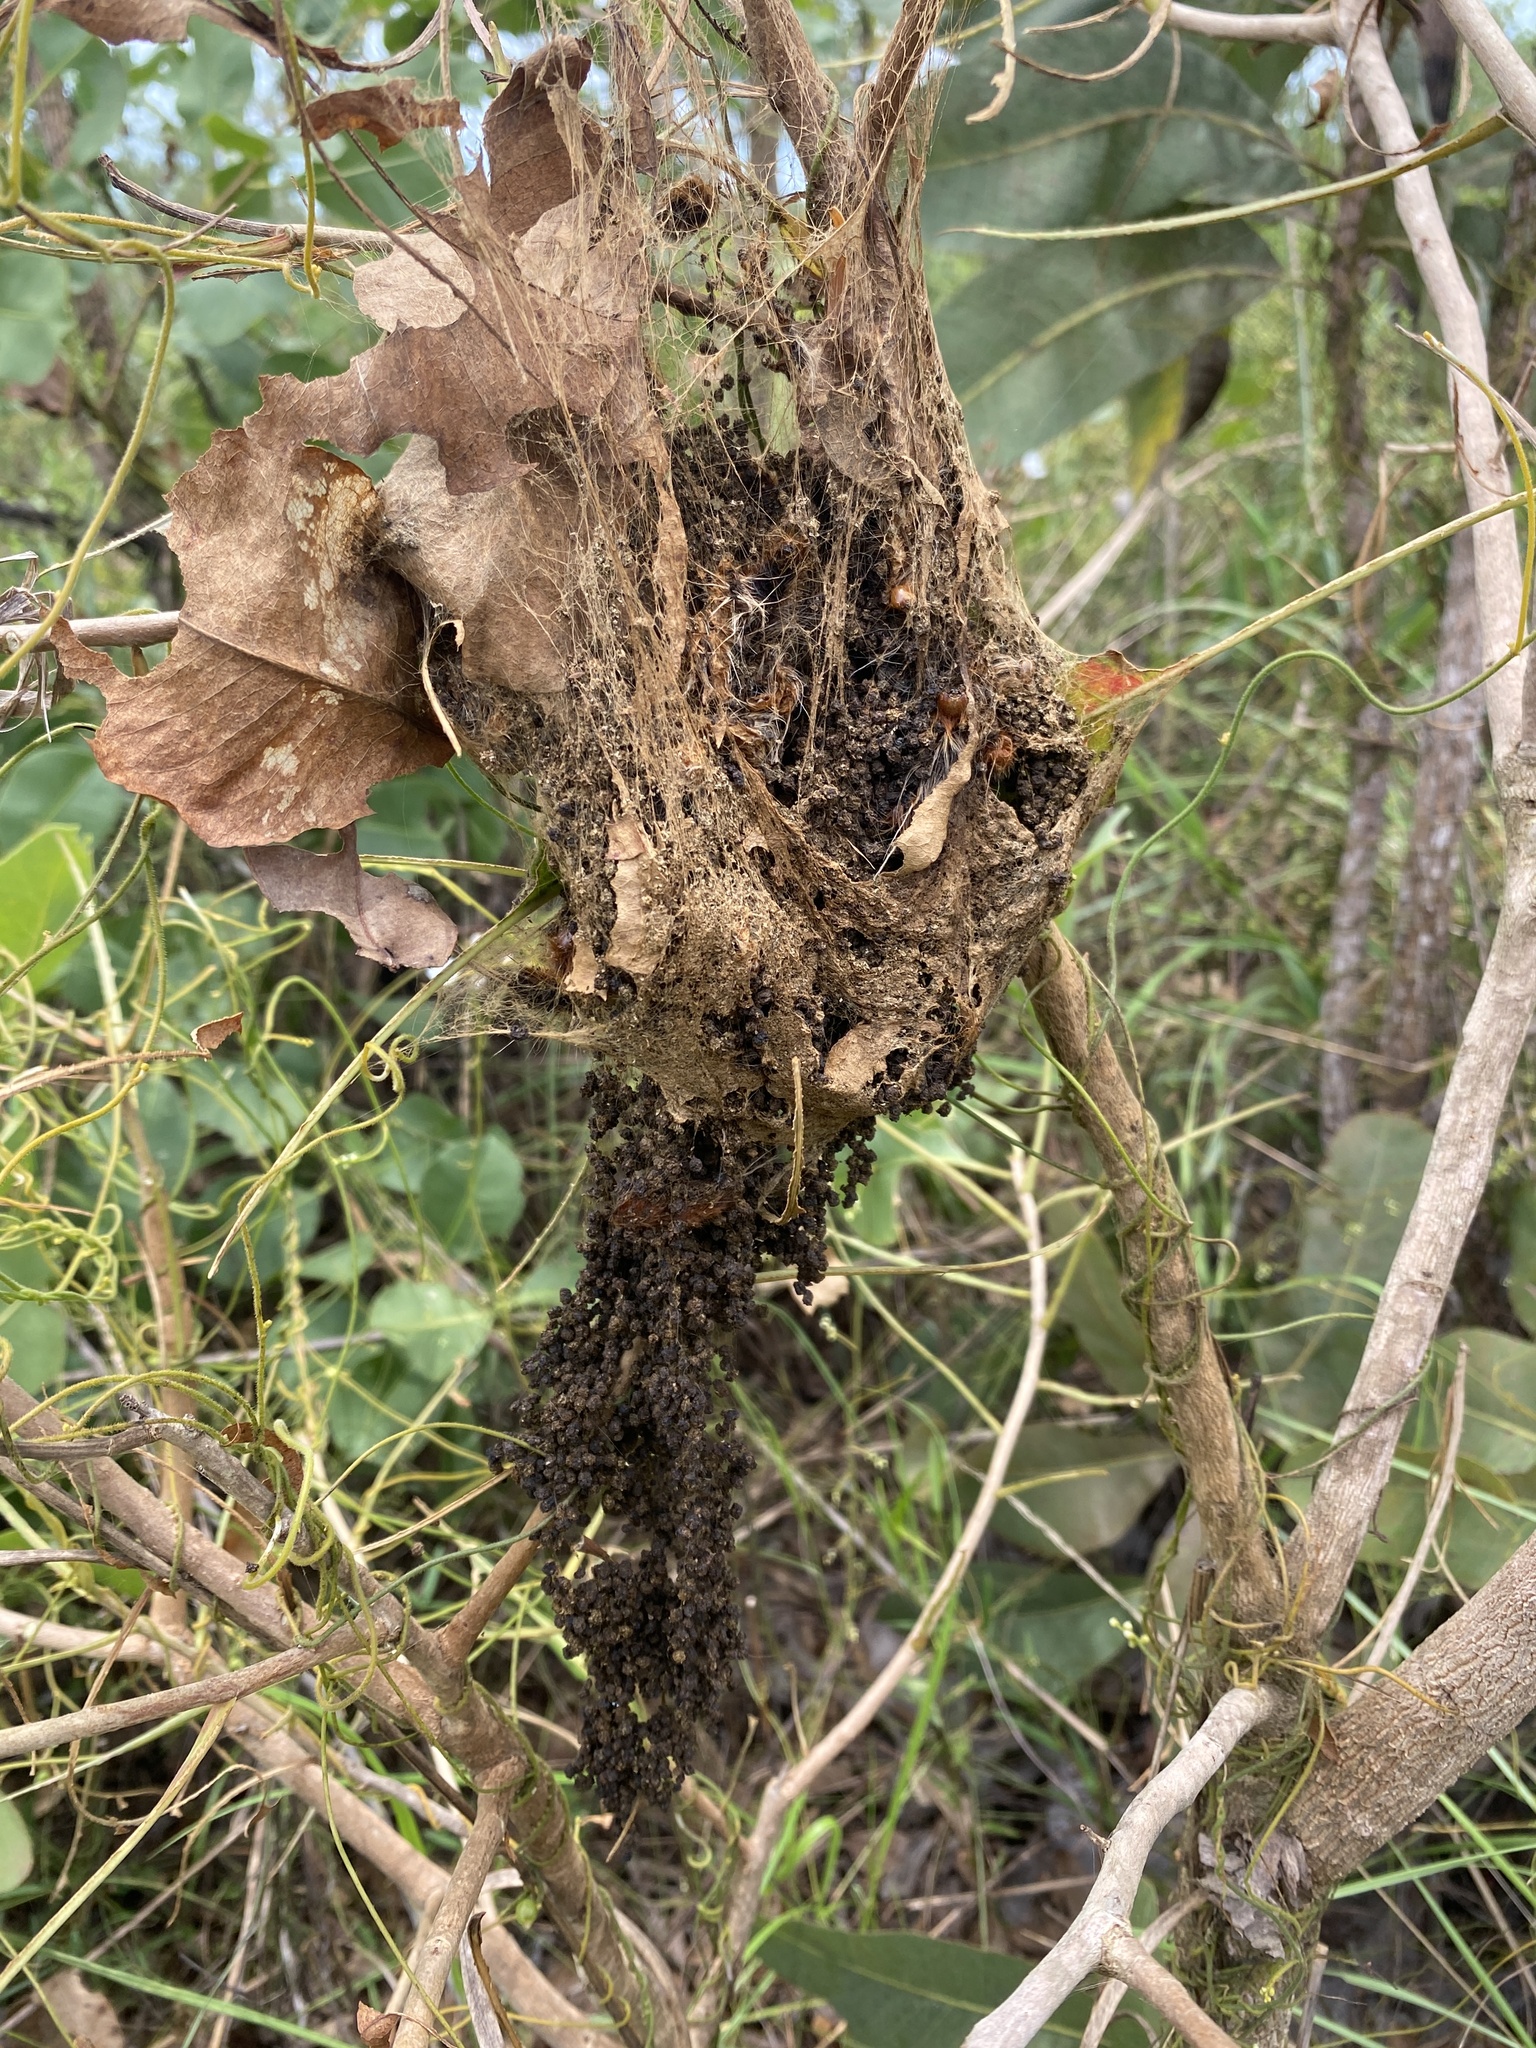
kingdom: Animalia
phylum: Arthropoda
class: Insecta
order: Lepidoptera
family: Notodontidae
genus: Ochrogaster
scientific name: Ochrogaster lunifer
